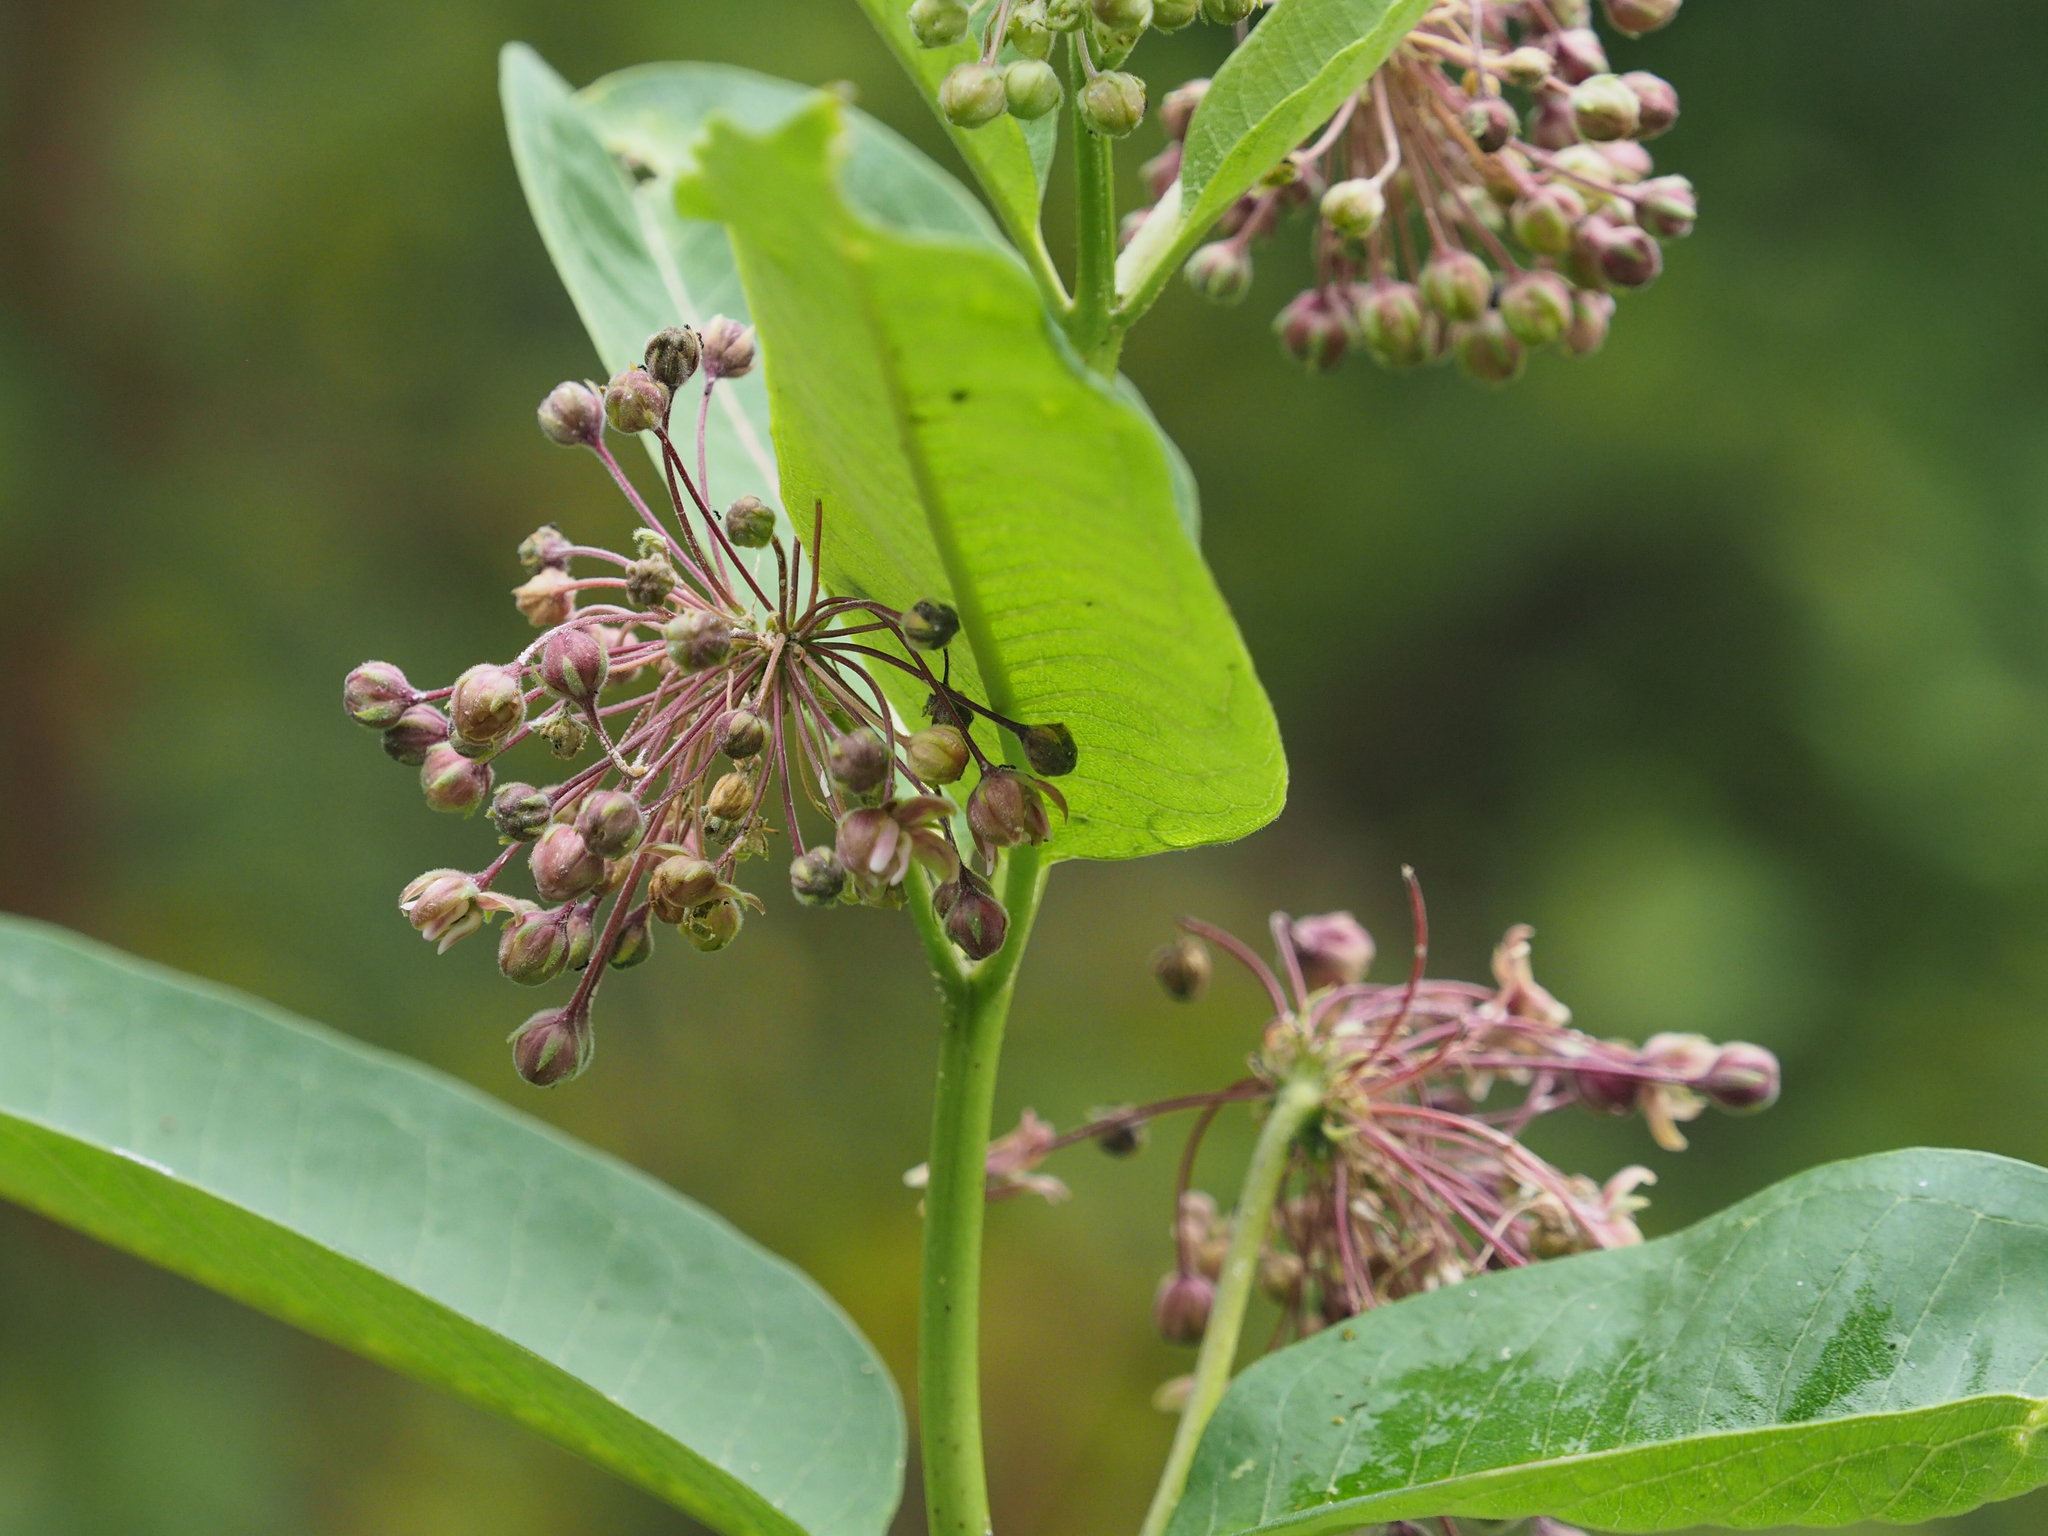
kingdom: Plantae
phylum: Tracheophyta
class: Magnoliopsida
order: Gentianales
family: Apocynaceae
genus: Asclepias
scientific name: Asclepias syriaca
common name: Common milkweed
